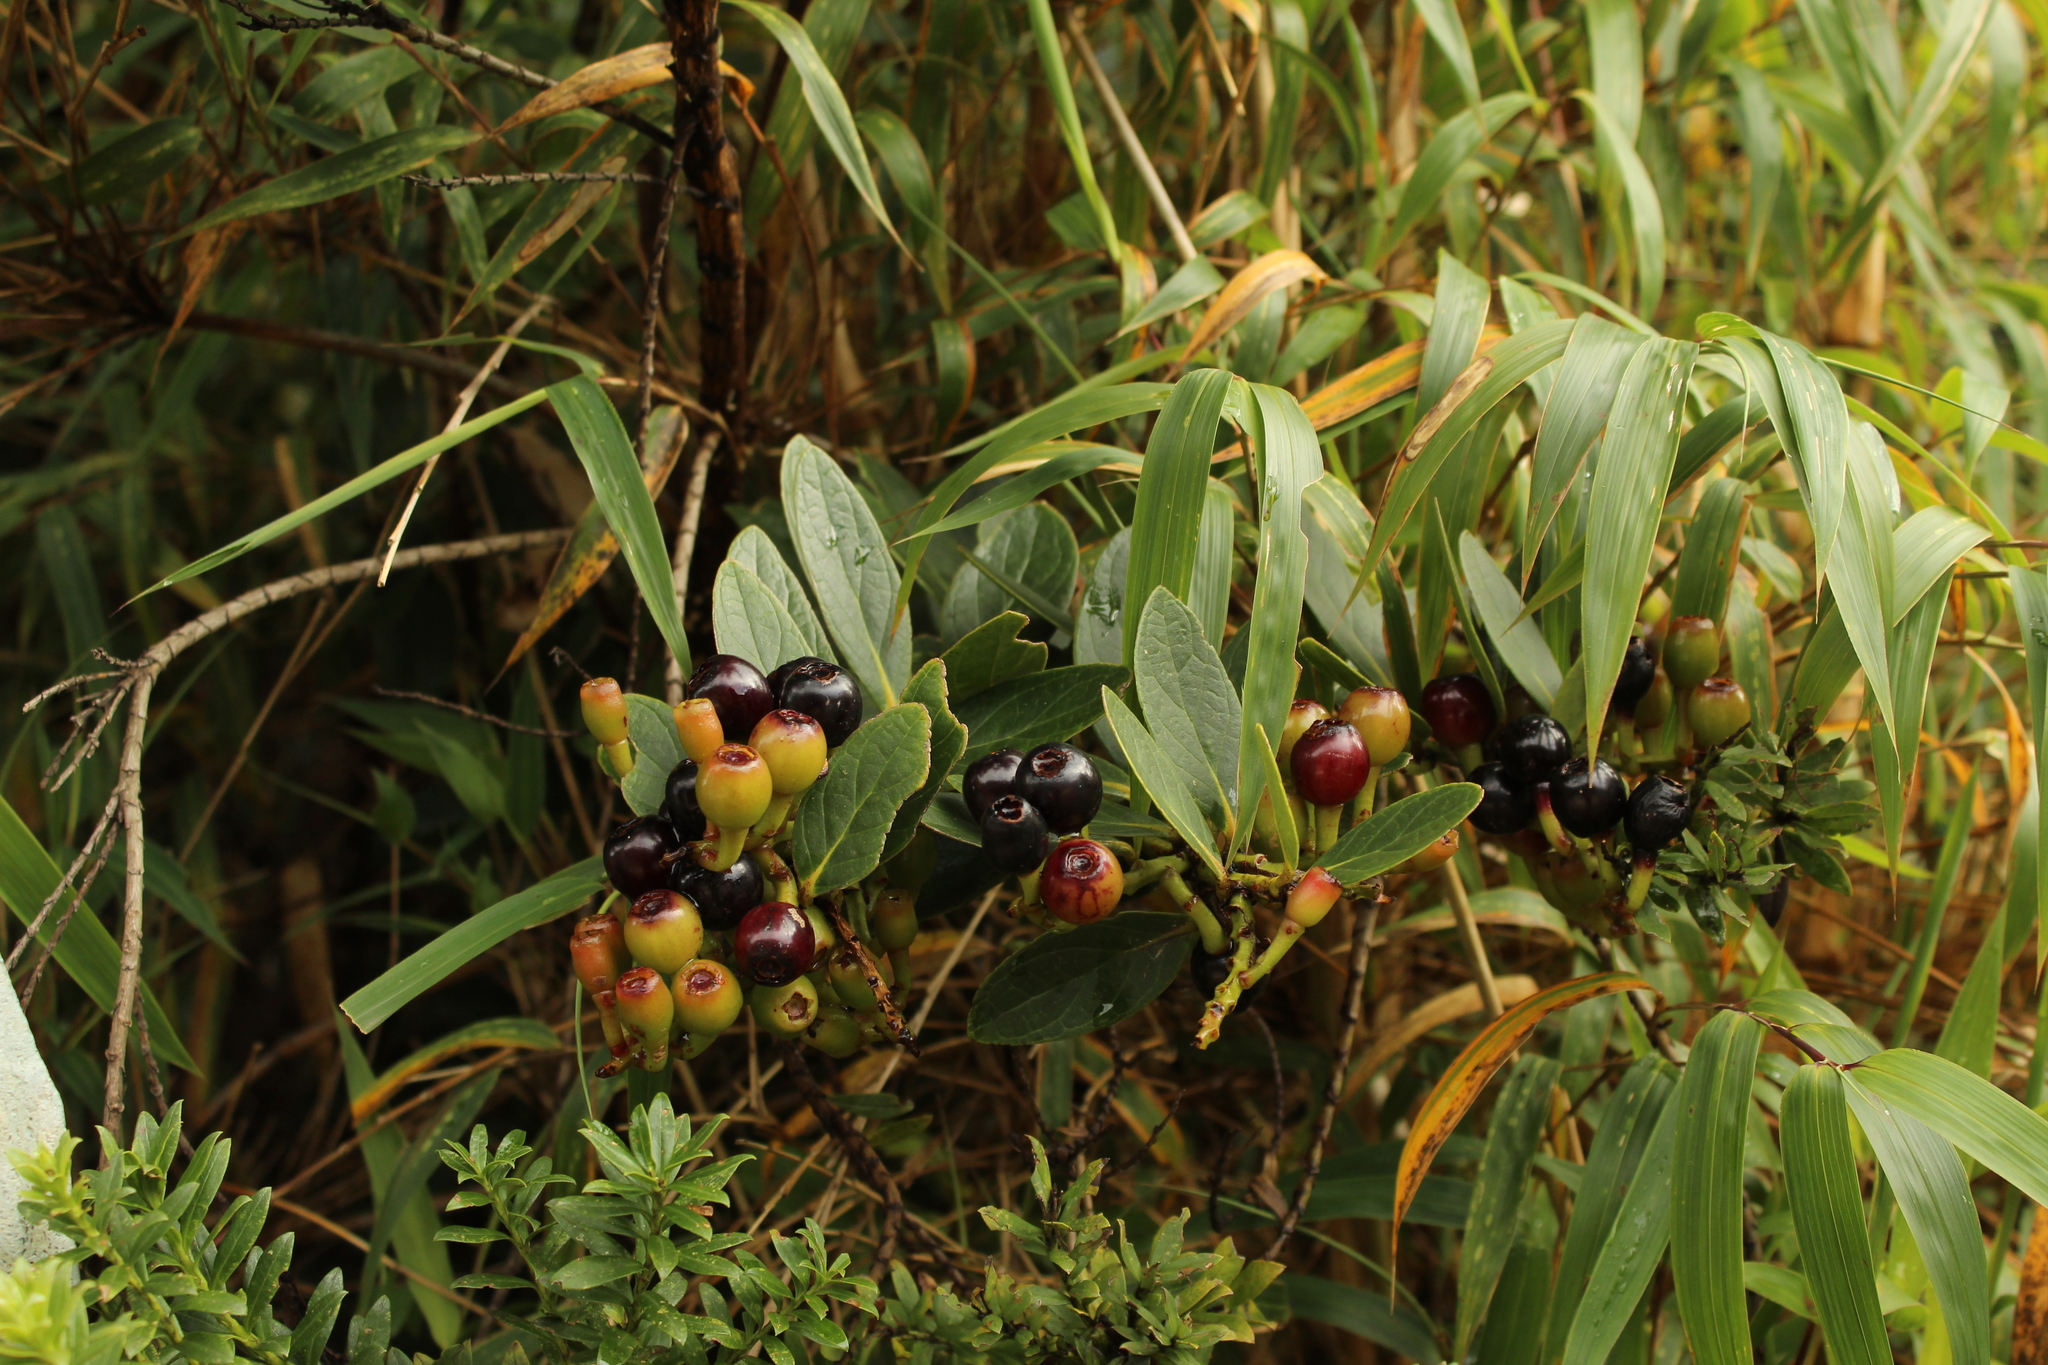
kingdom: Plantae
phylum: Tracheophyta
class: Magnoliopsida
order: Ericales
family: Ericaceae
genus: Macleania
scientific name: Macleania rupestris
